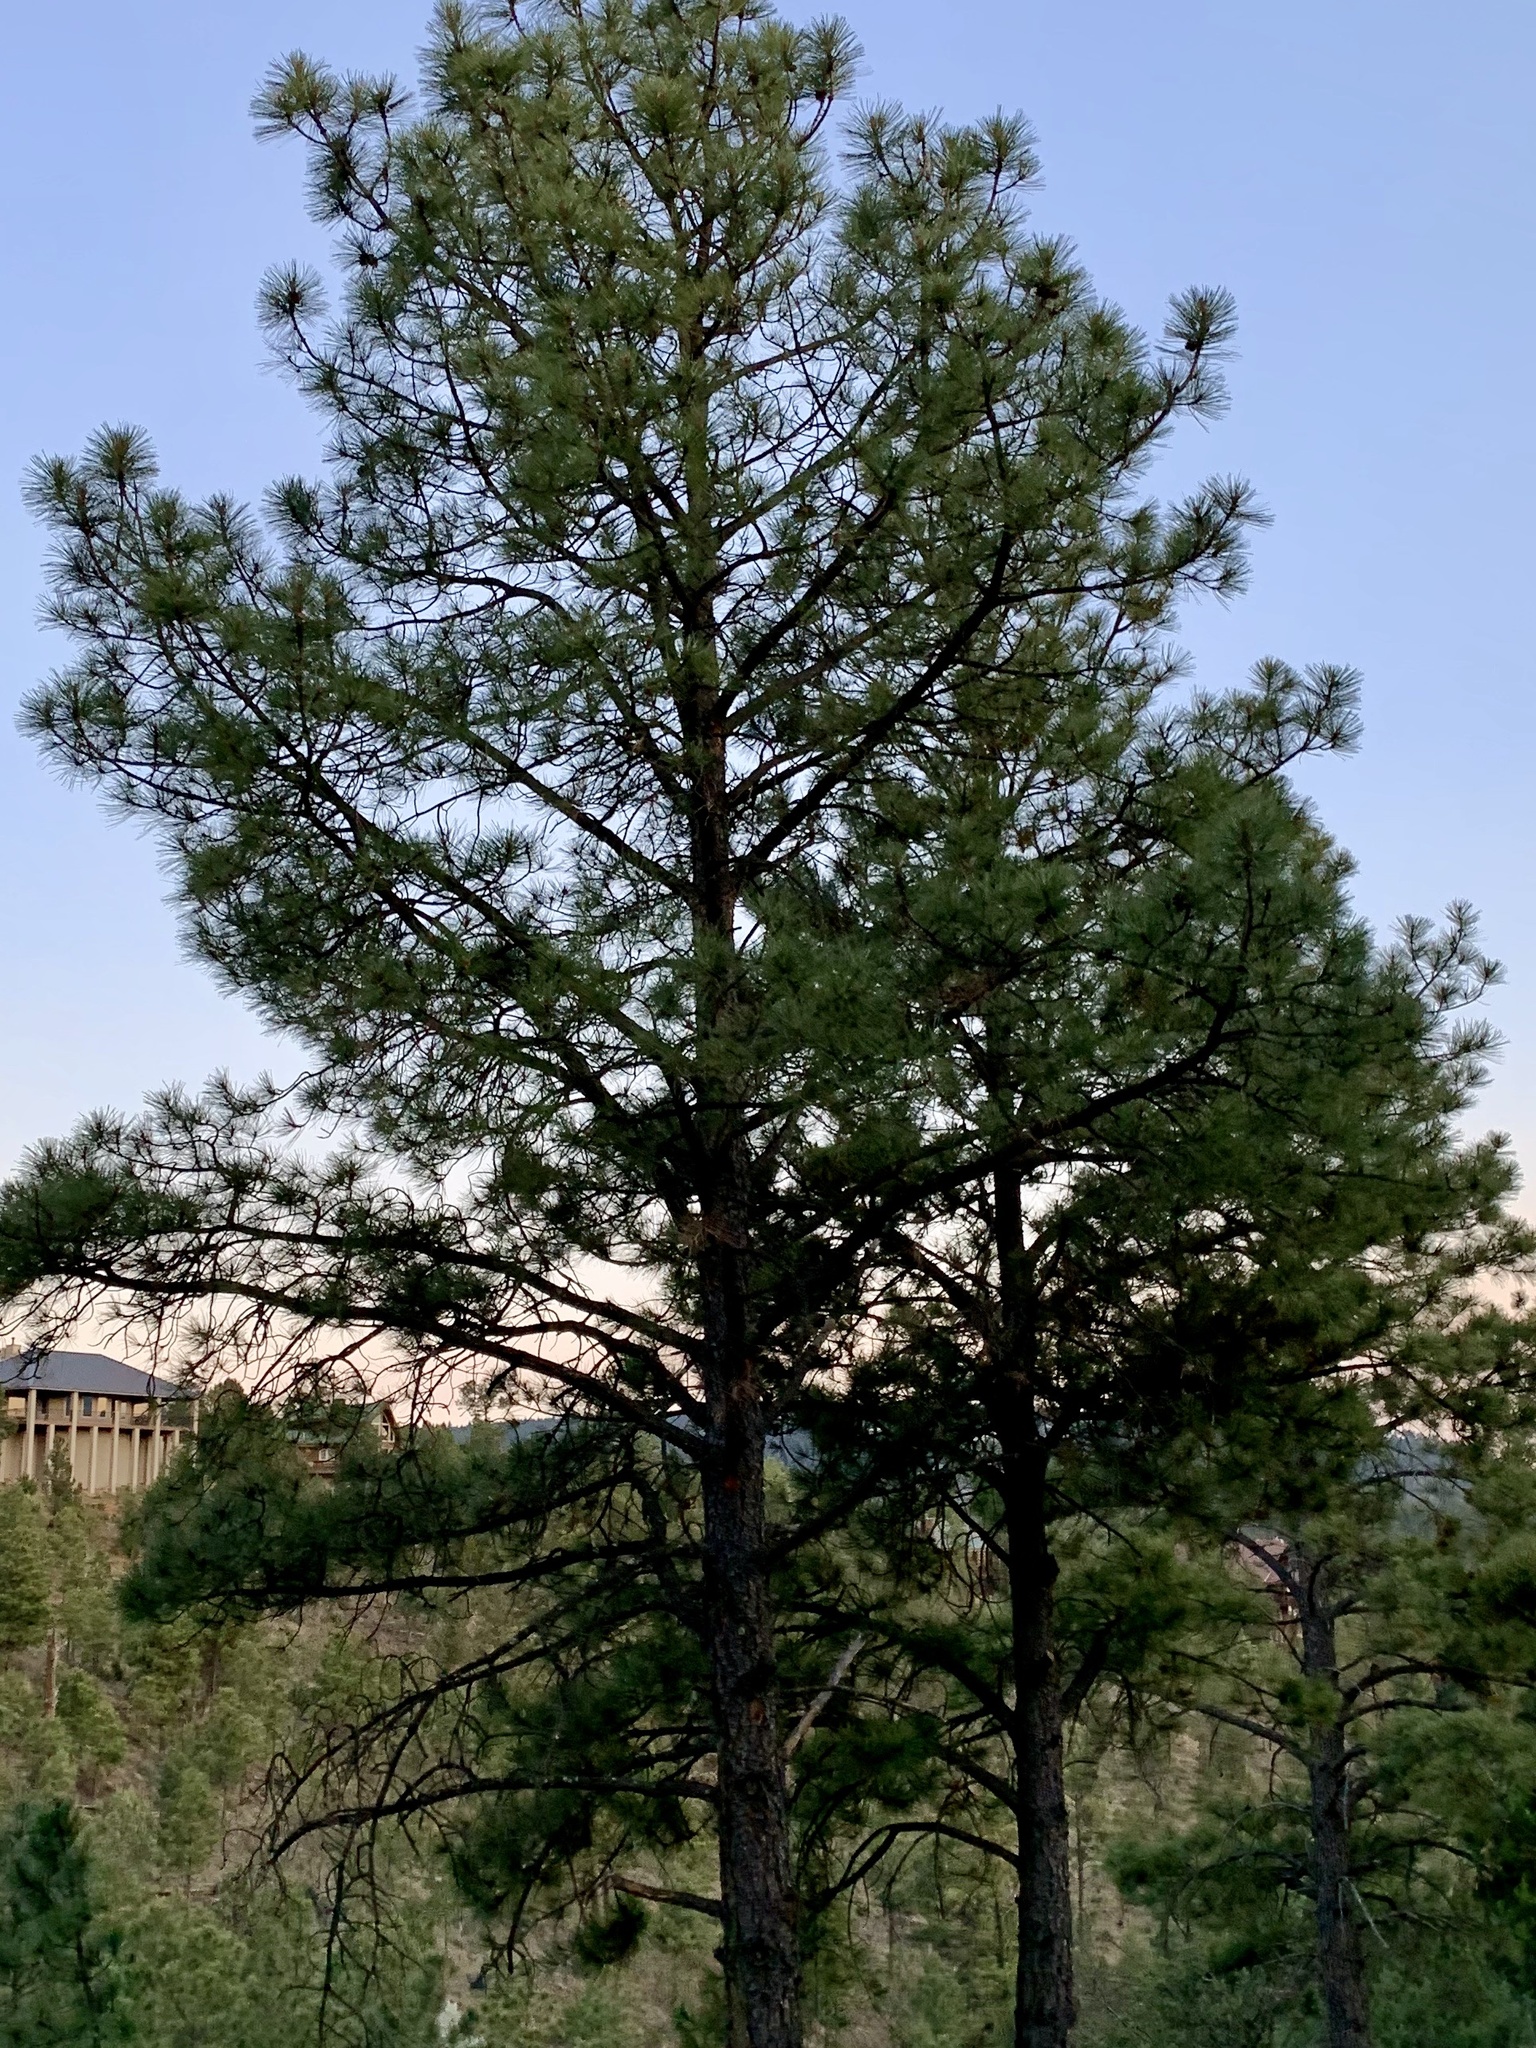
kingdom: Plantae
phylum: Tracheophyta
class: Pinopsida
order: Pinales
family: Pinaceae
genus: Pinus
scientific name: Pinus ponderosa
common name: Western yellow-pine
